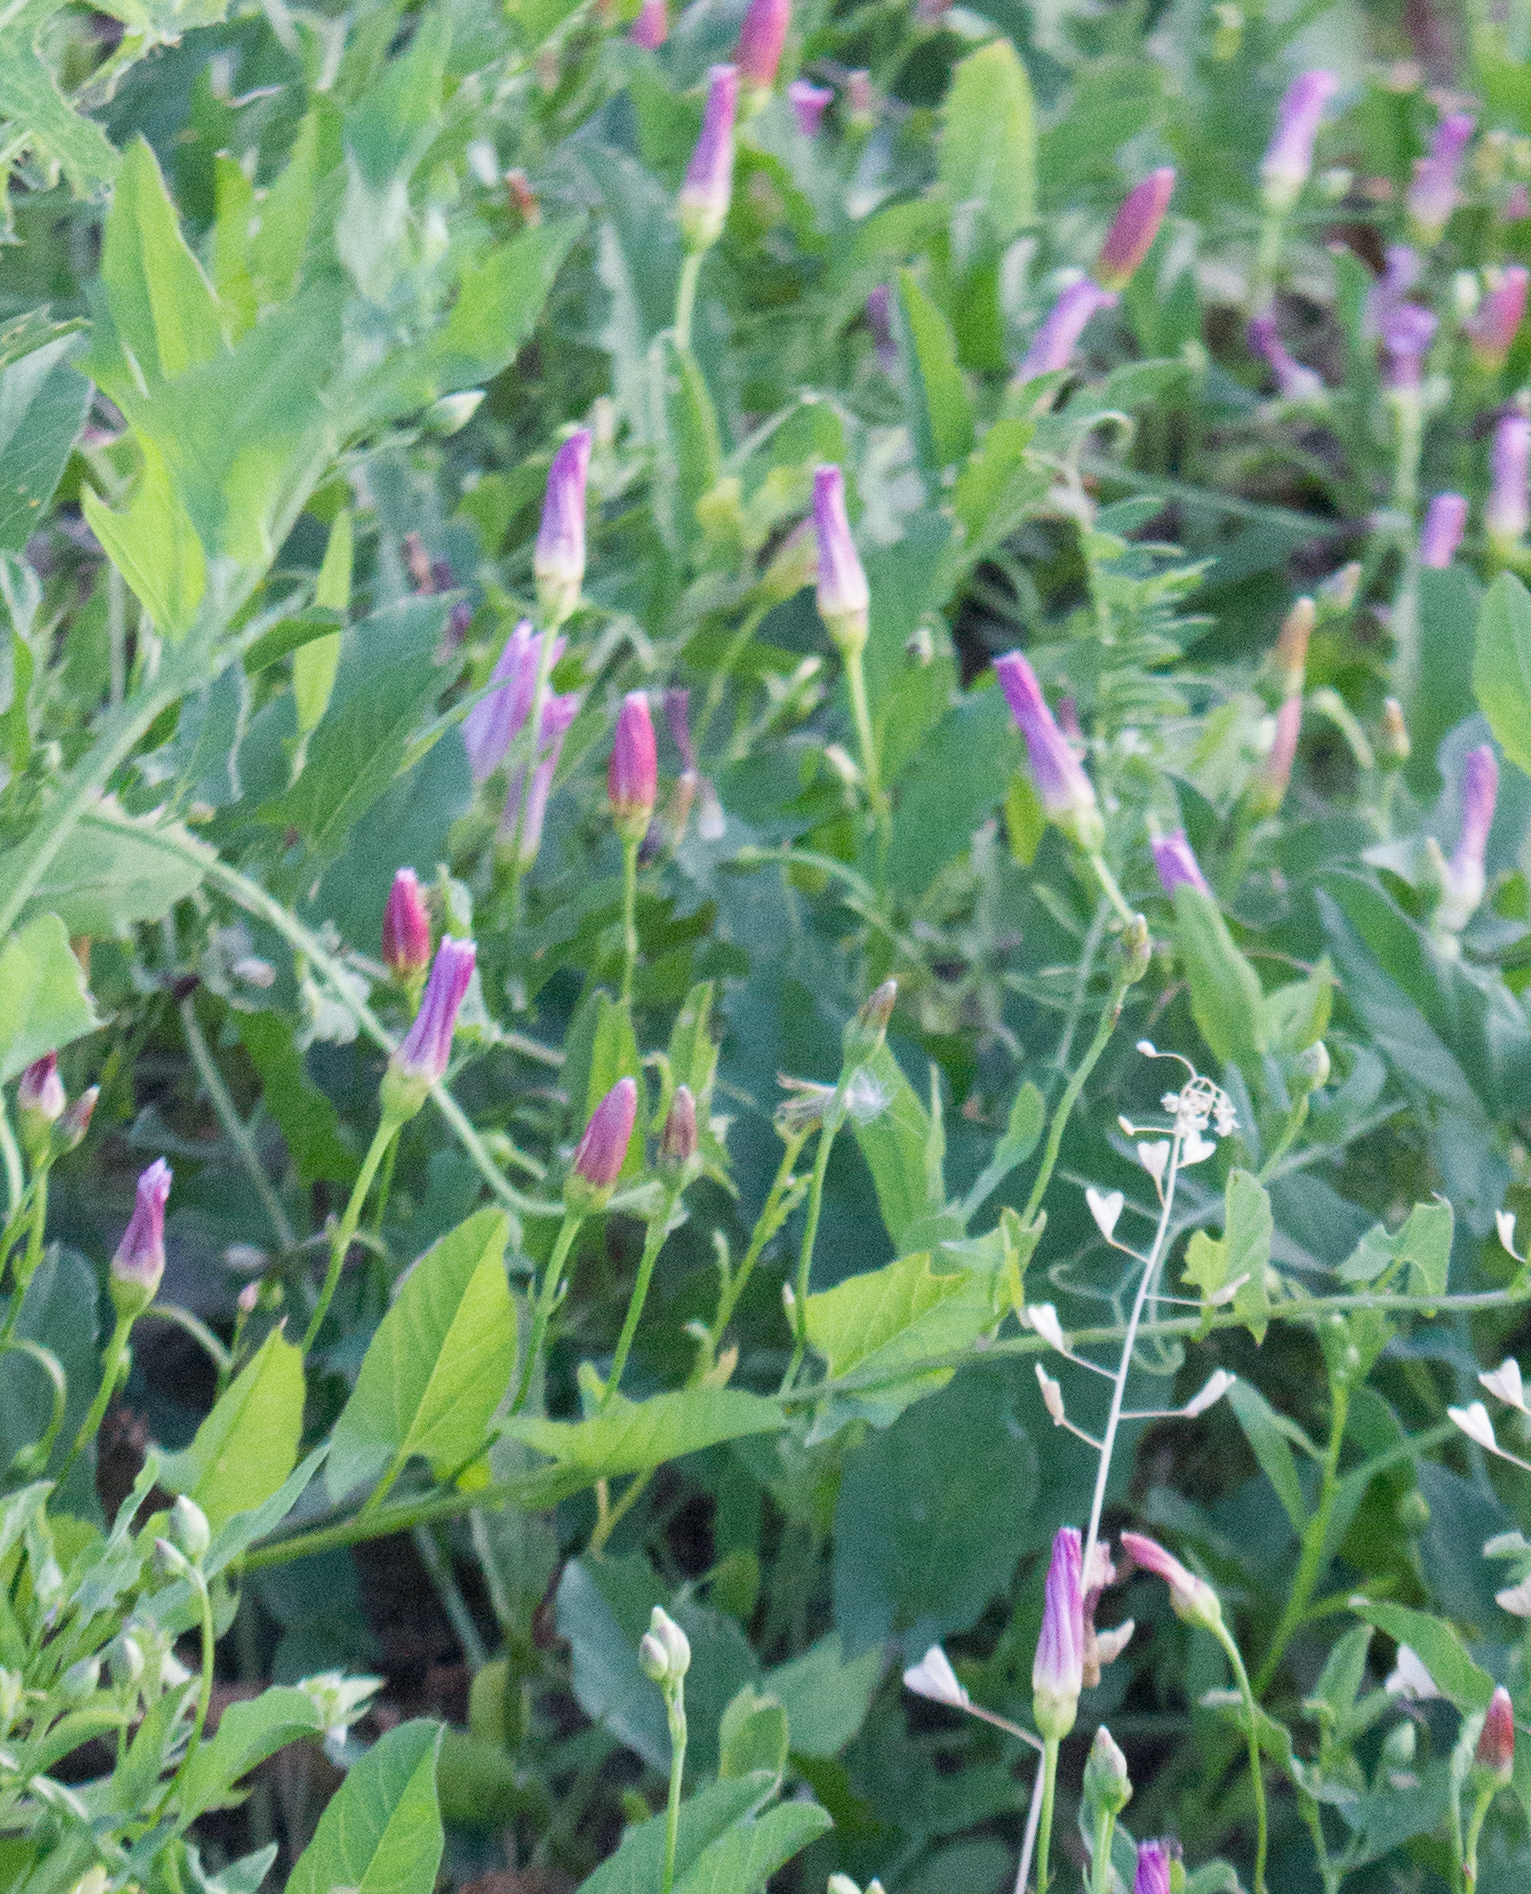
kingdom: Plantae
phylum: Tracheophyta
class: Magnoliopsida
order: Solanales
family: Convolvulaceae
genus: Convolvulus
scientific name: Convolvulus arvensis
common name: Field bindweed
